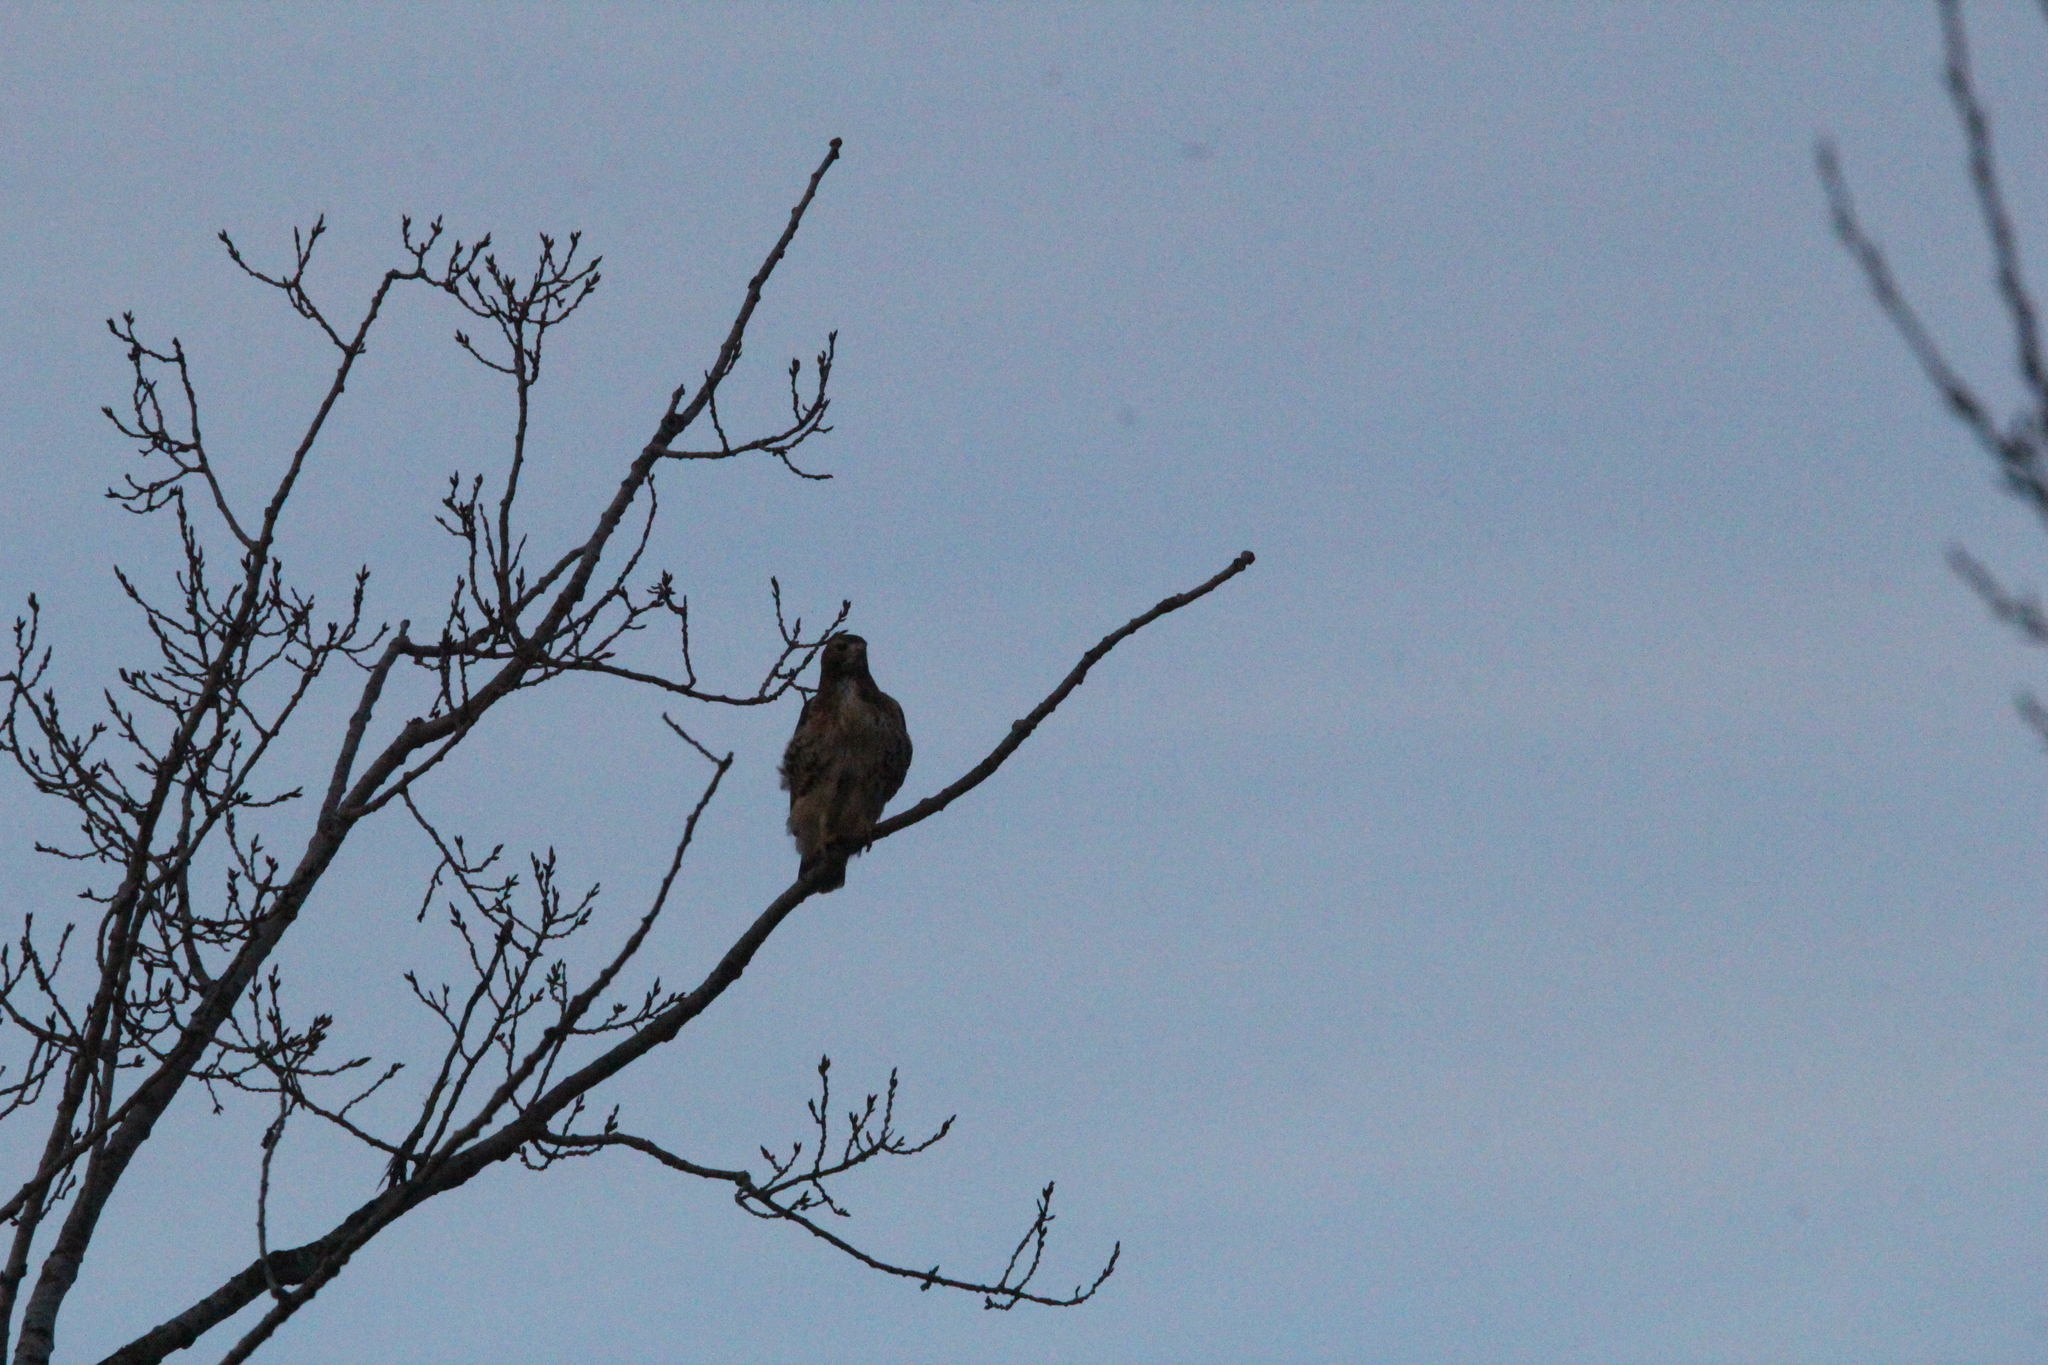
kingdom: Animalia
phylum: Chordata
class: Aves
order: Accipitriformes
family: Accipitridae
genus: Buteo
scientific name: Buteo jamaicensis
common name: Red-tailed hawk
